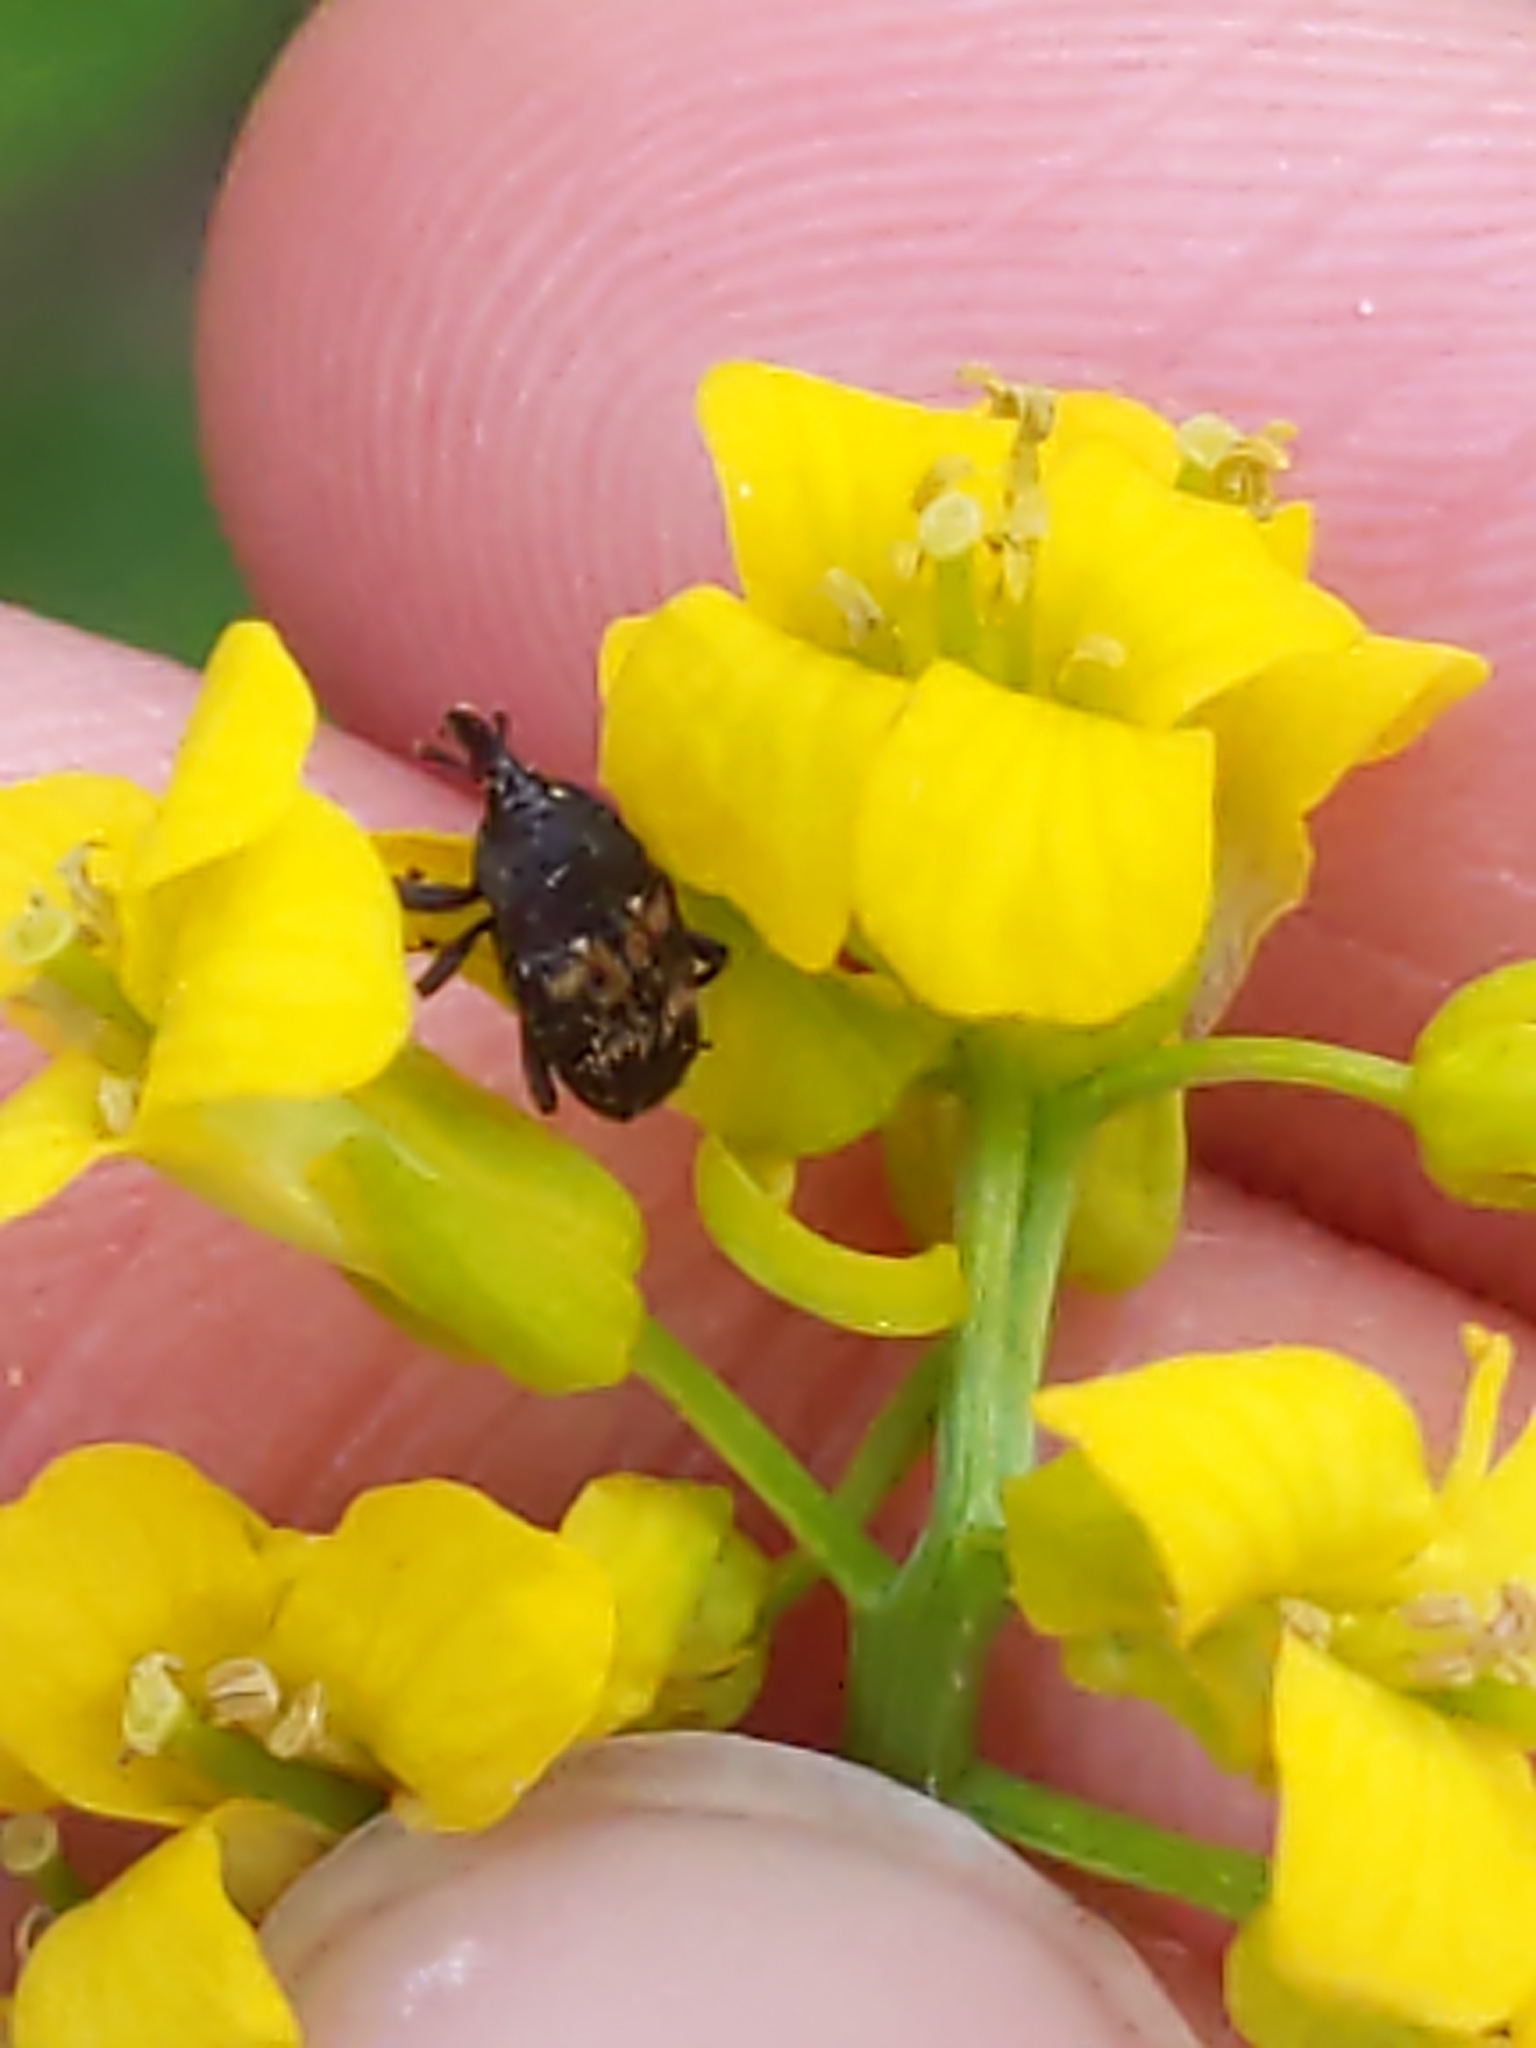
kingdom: Animalia
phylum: Arthropoda
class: Insecta
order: Coleoptera
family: Curculionidae
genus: Glyptobaris
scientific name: Glyptobaris lecontei
